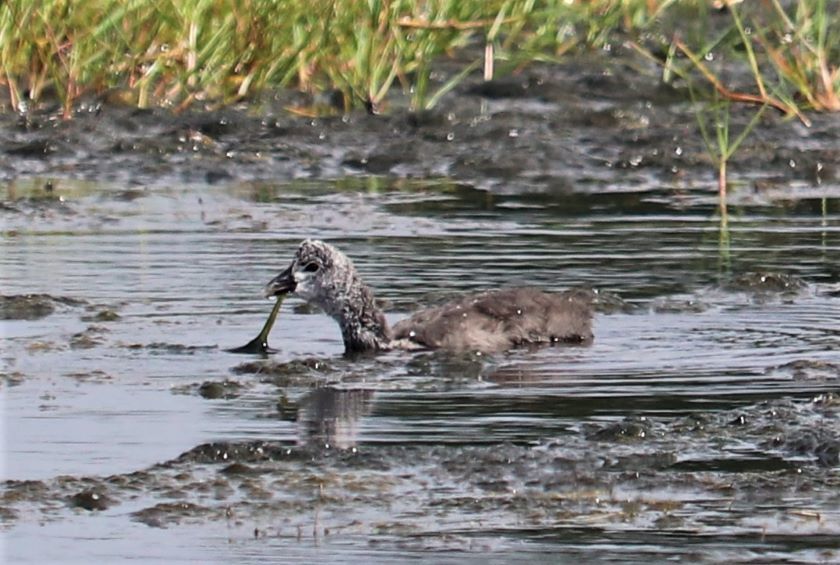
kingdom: Animalia
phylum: Chordata
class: Aves
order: Gruiformes
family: Rallidae
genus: Fulica
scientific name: Fulica cristata
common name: Red-knobbed coot
